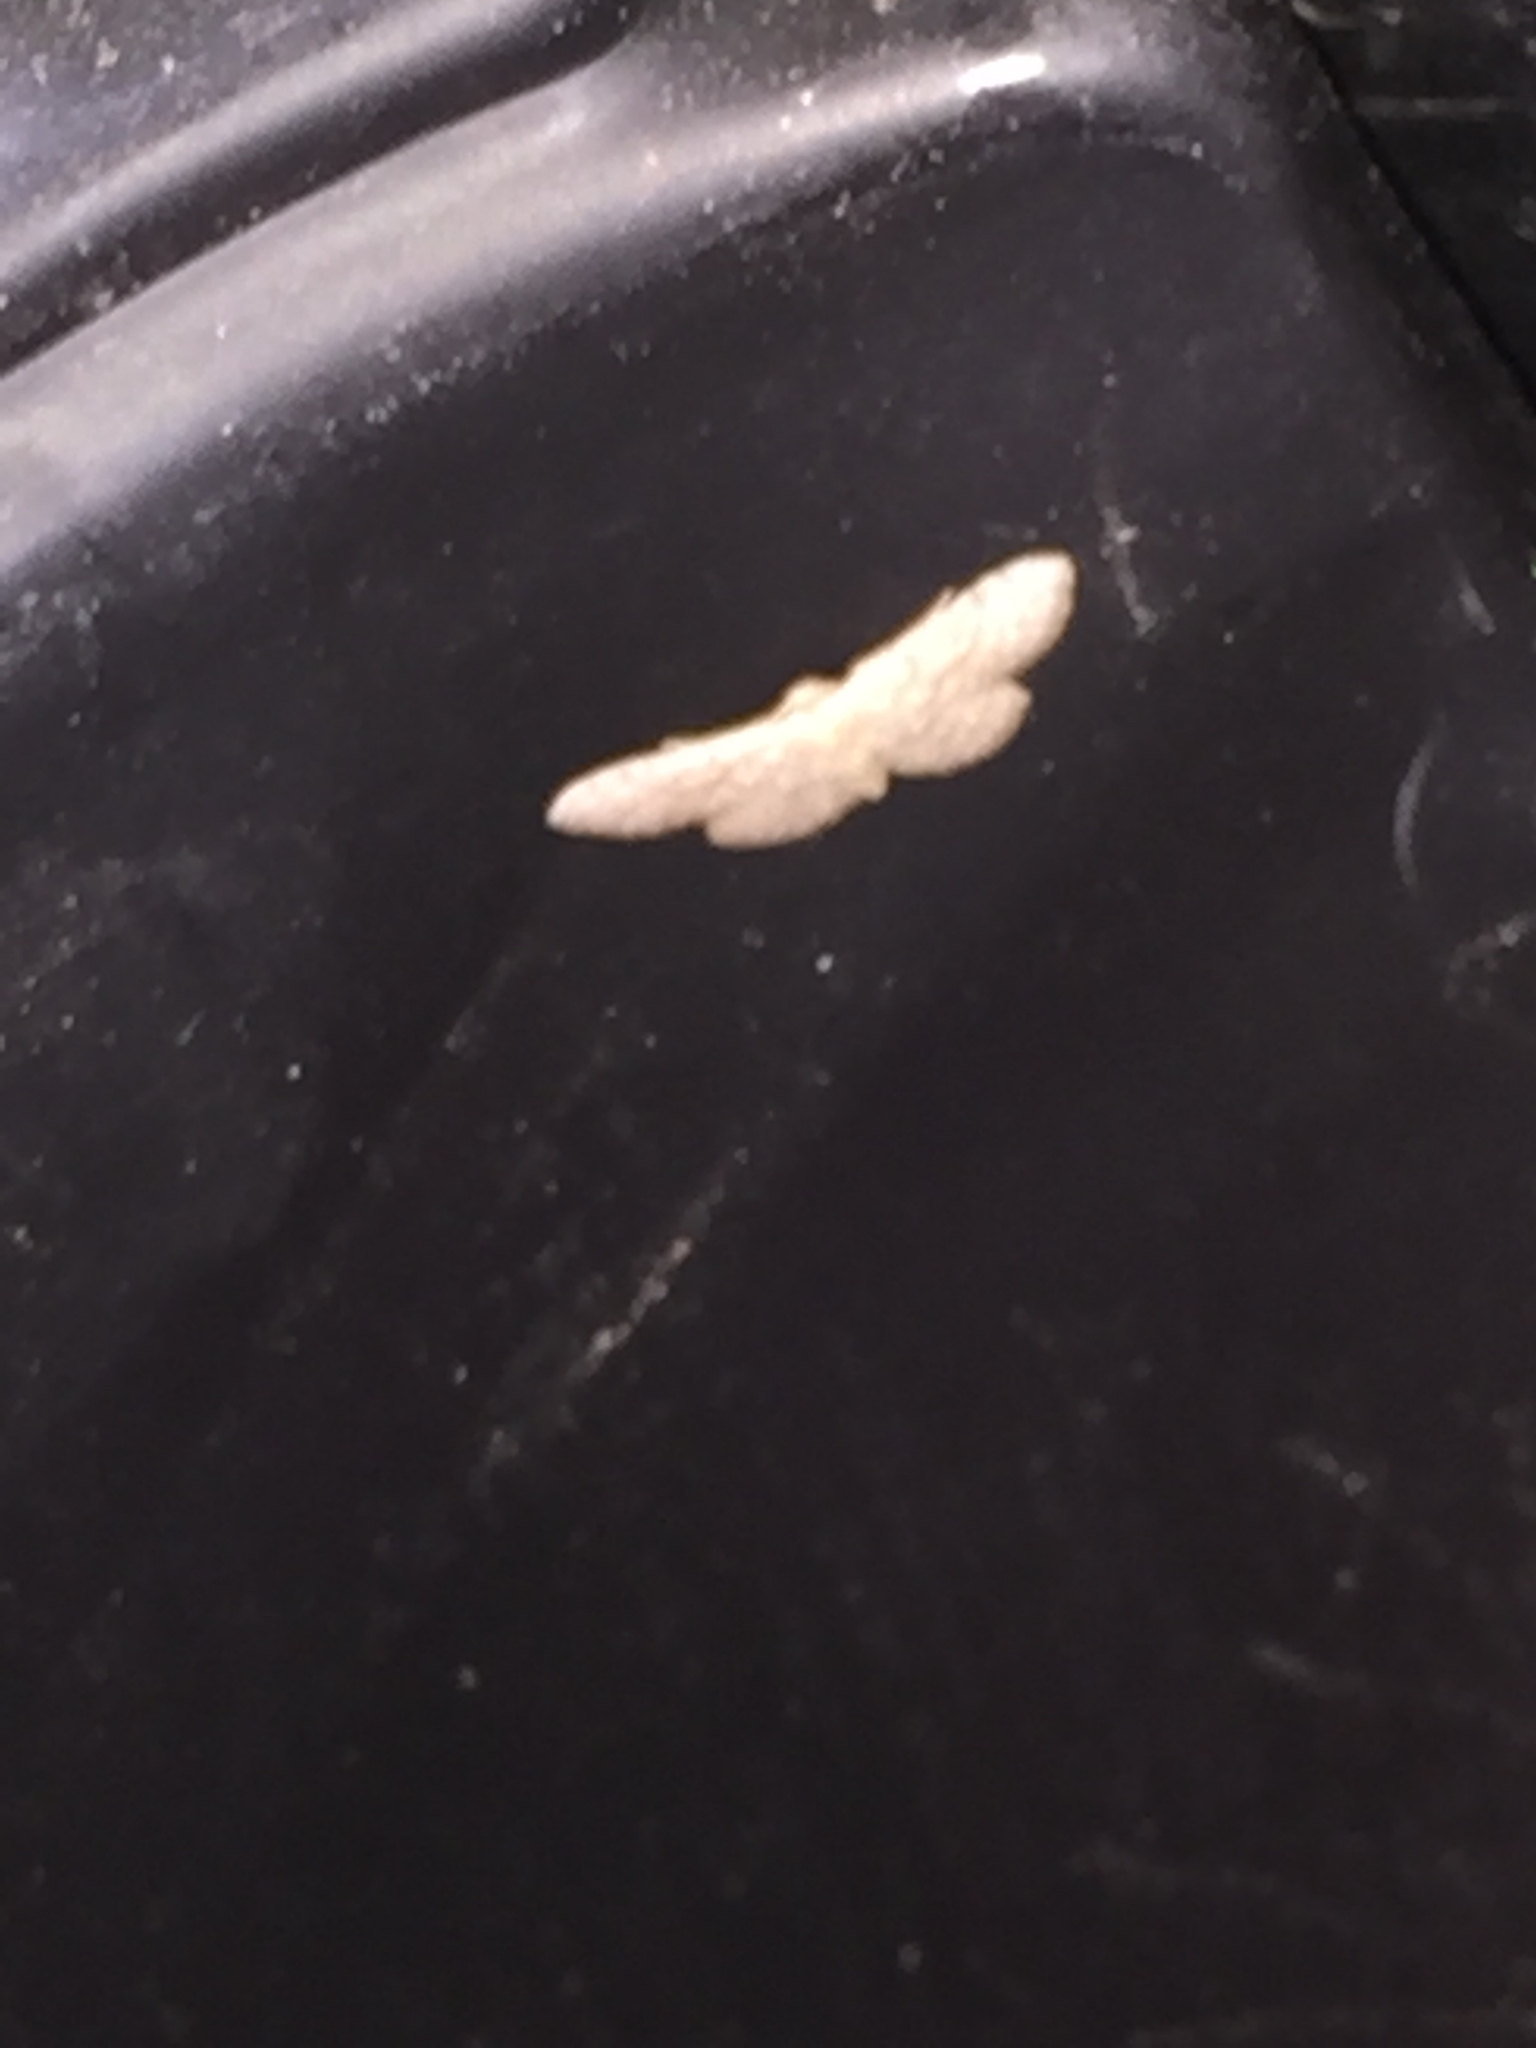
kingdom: Animalia
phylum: Arthropoda
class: Insecta
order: Lepidoptera
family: Geometridae
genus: Lobocleta
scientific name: Lobocleta ossularia
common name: Drab brown wave
